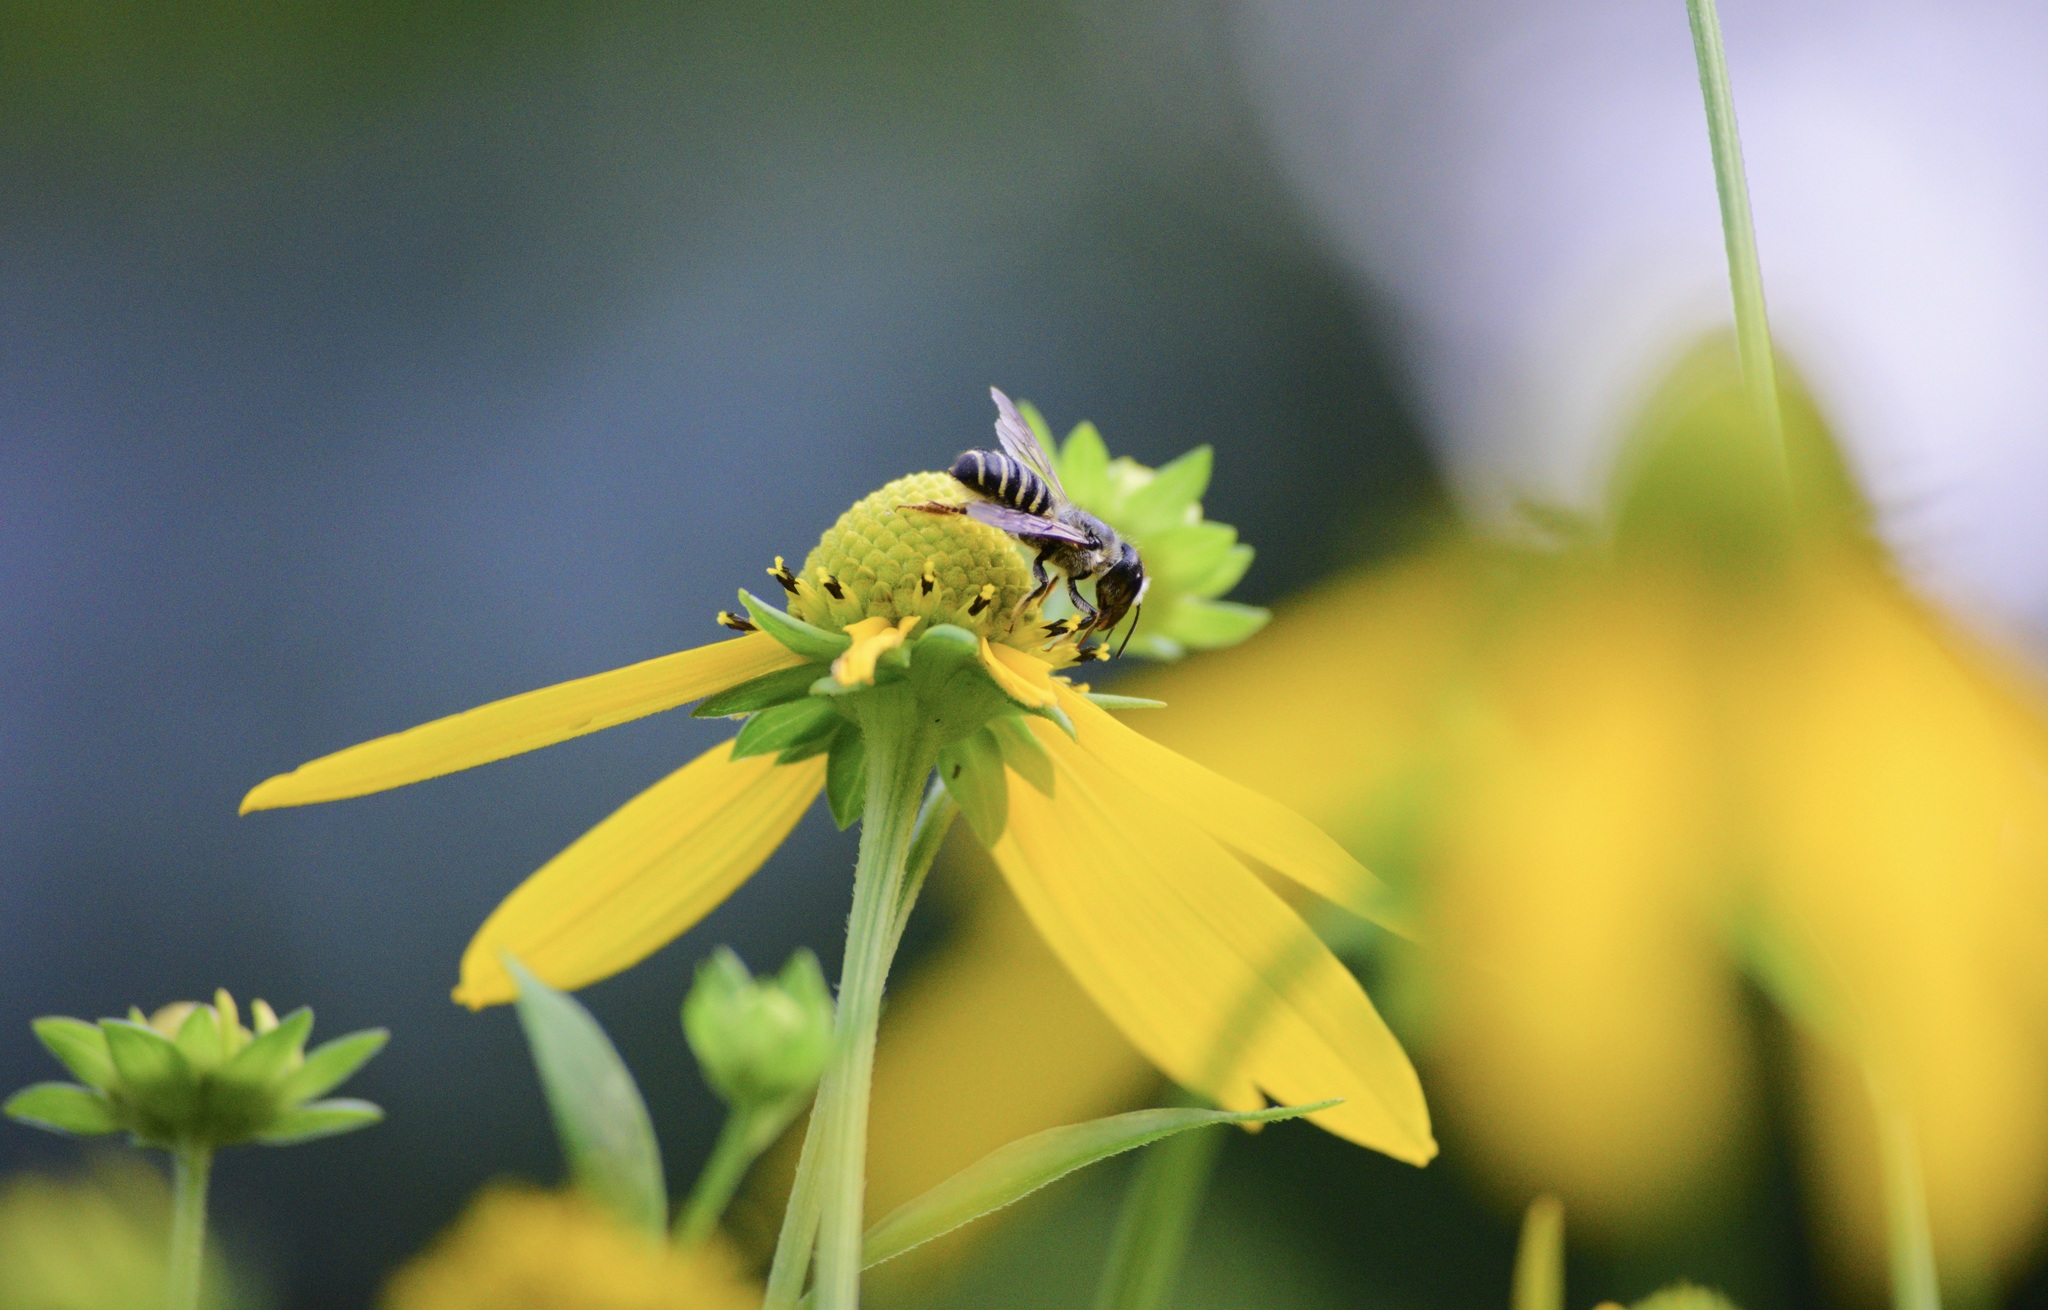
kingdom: Animalia
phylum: Arthropoda
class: Insecta
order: Hymenoptera
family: Megachilidae
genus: Megachile
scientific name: Megachile pugnata
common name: Pugnacious leafcutter bee
